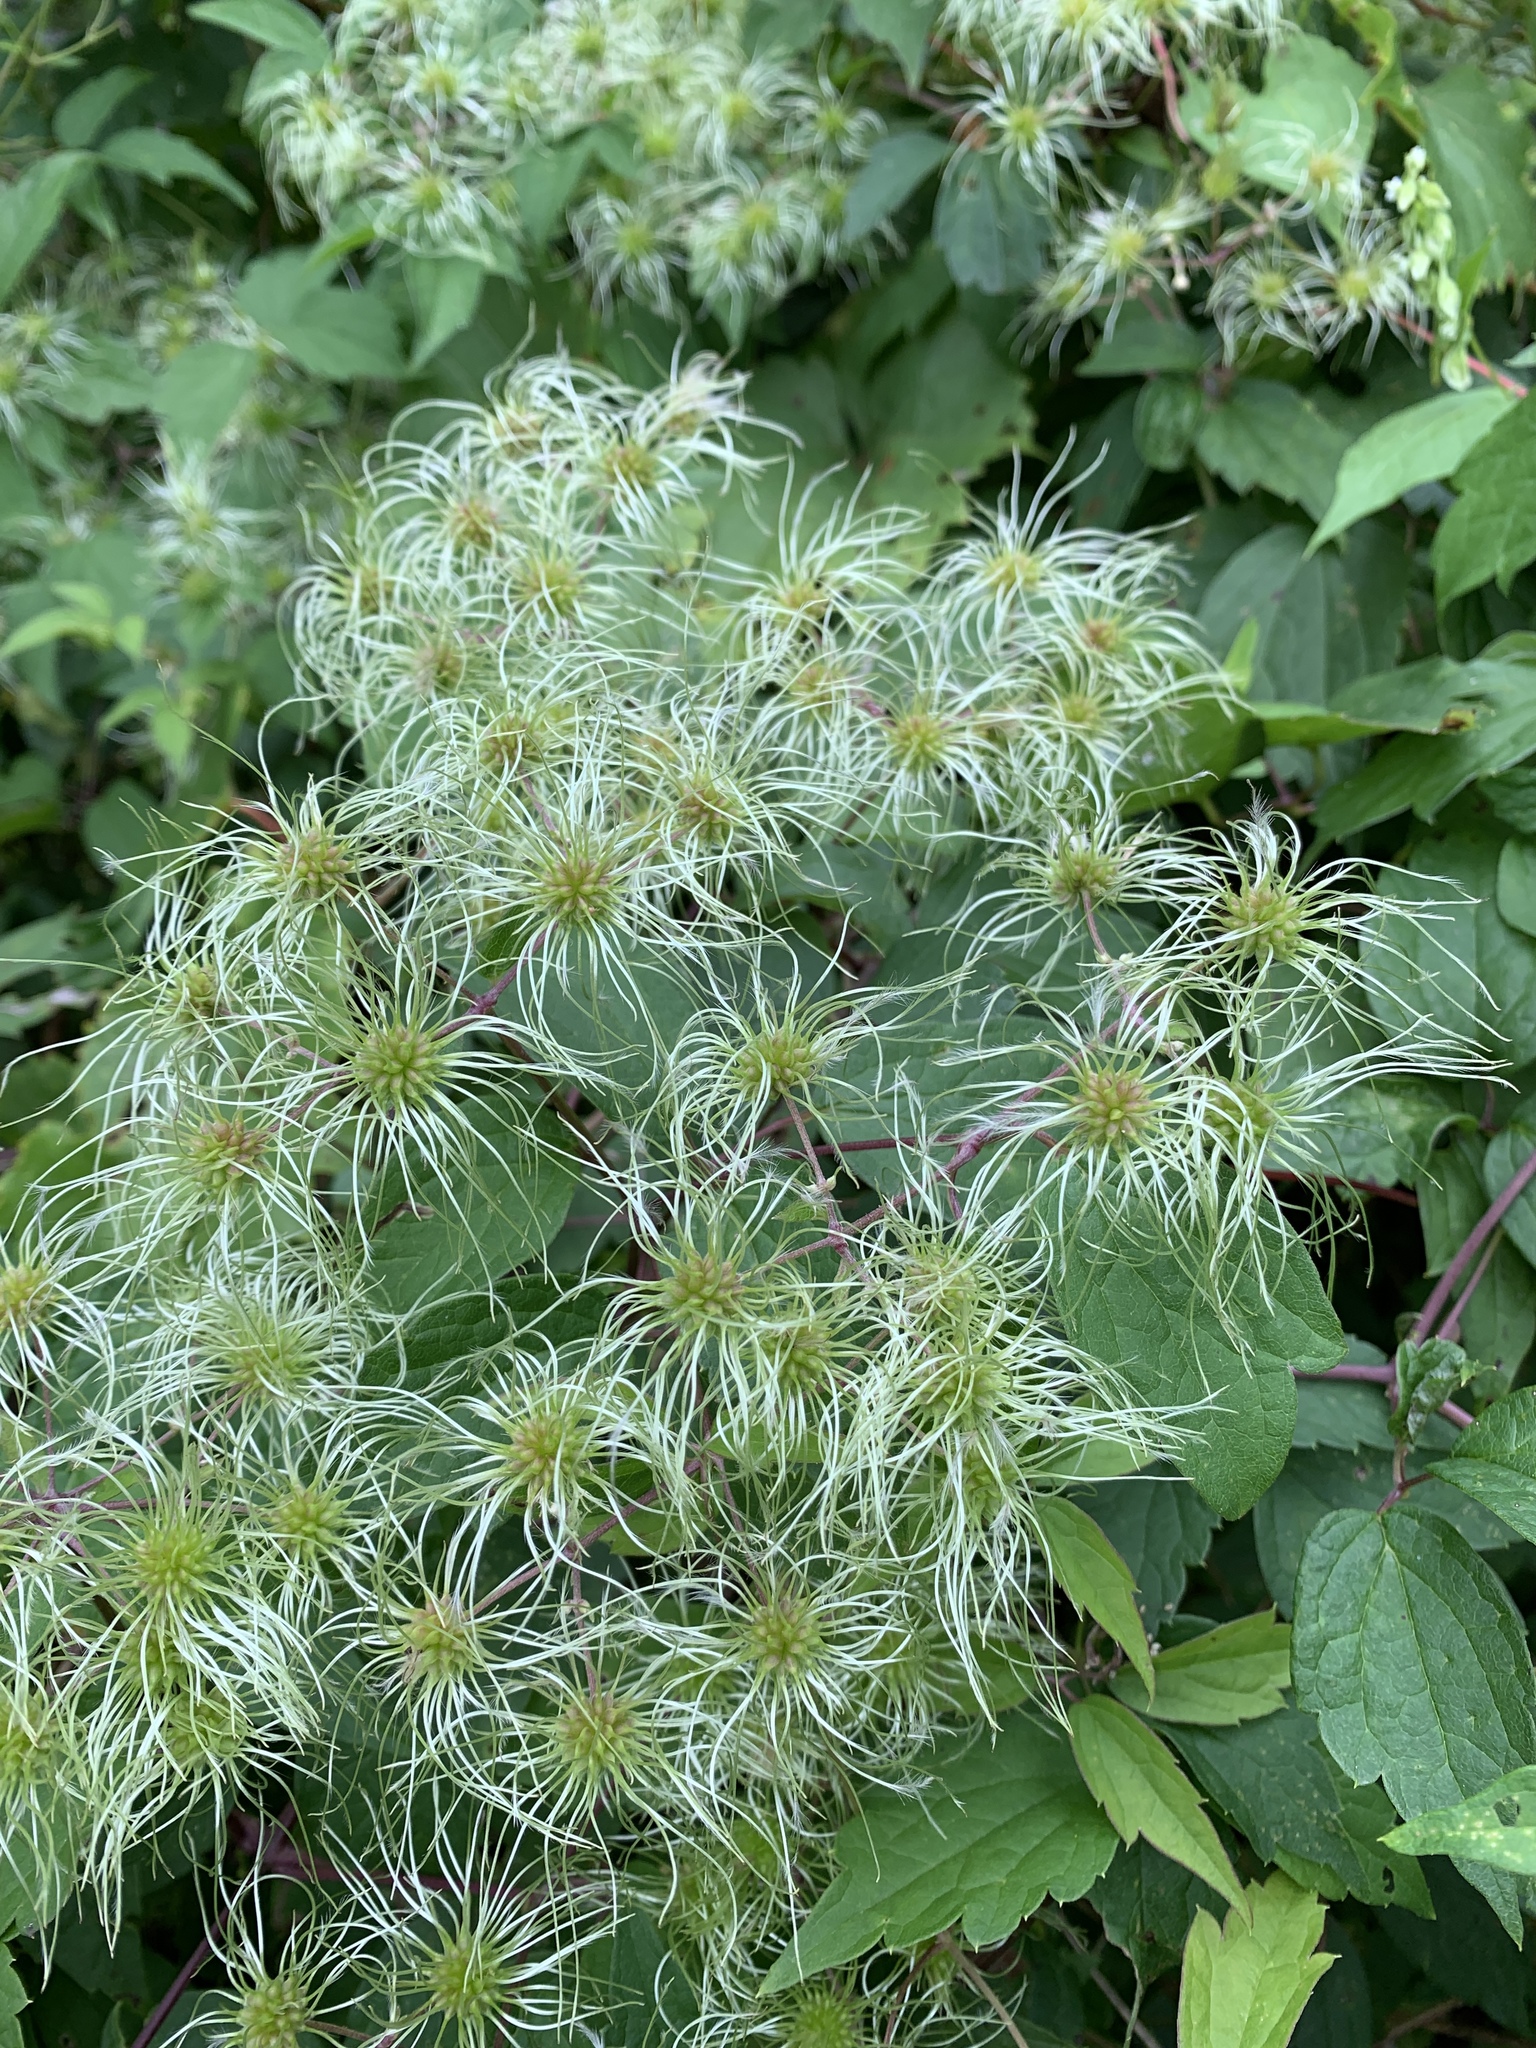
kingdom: Plantae
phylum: Tracheophyta
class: Magnoliopsida
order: Ranunculales
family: Ranunculaceae
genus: Clematis
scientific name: Clematis virginiana
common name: Virgin's-bower
